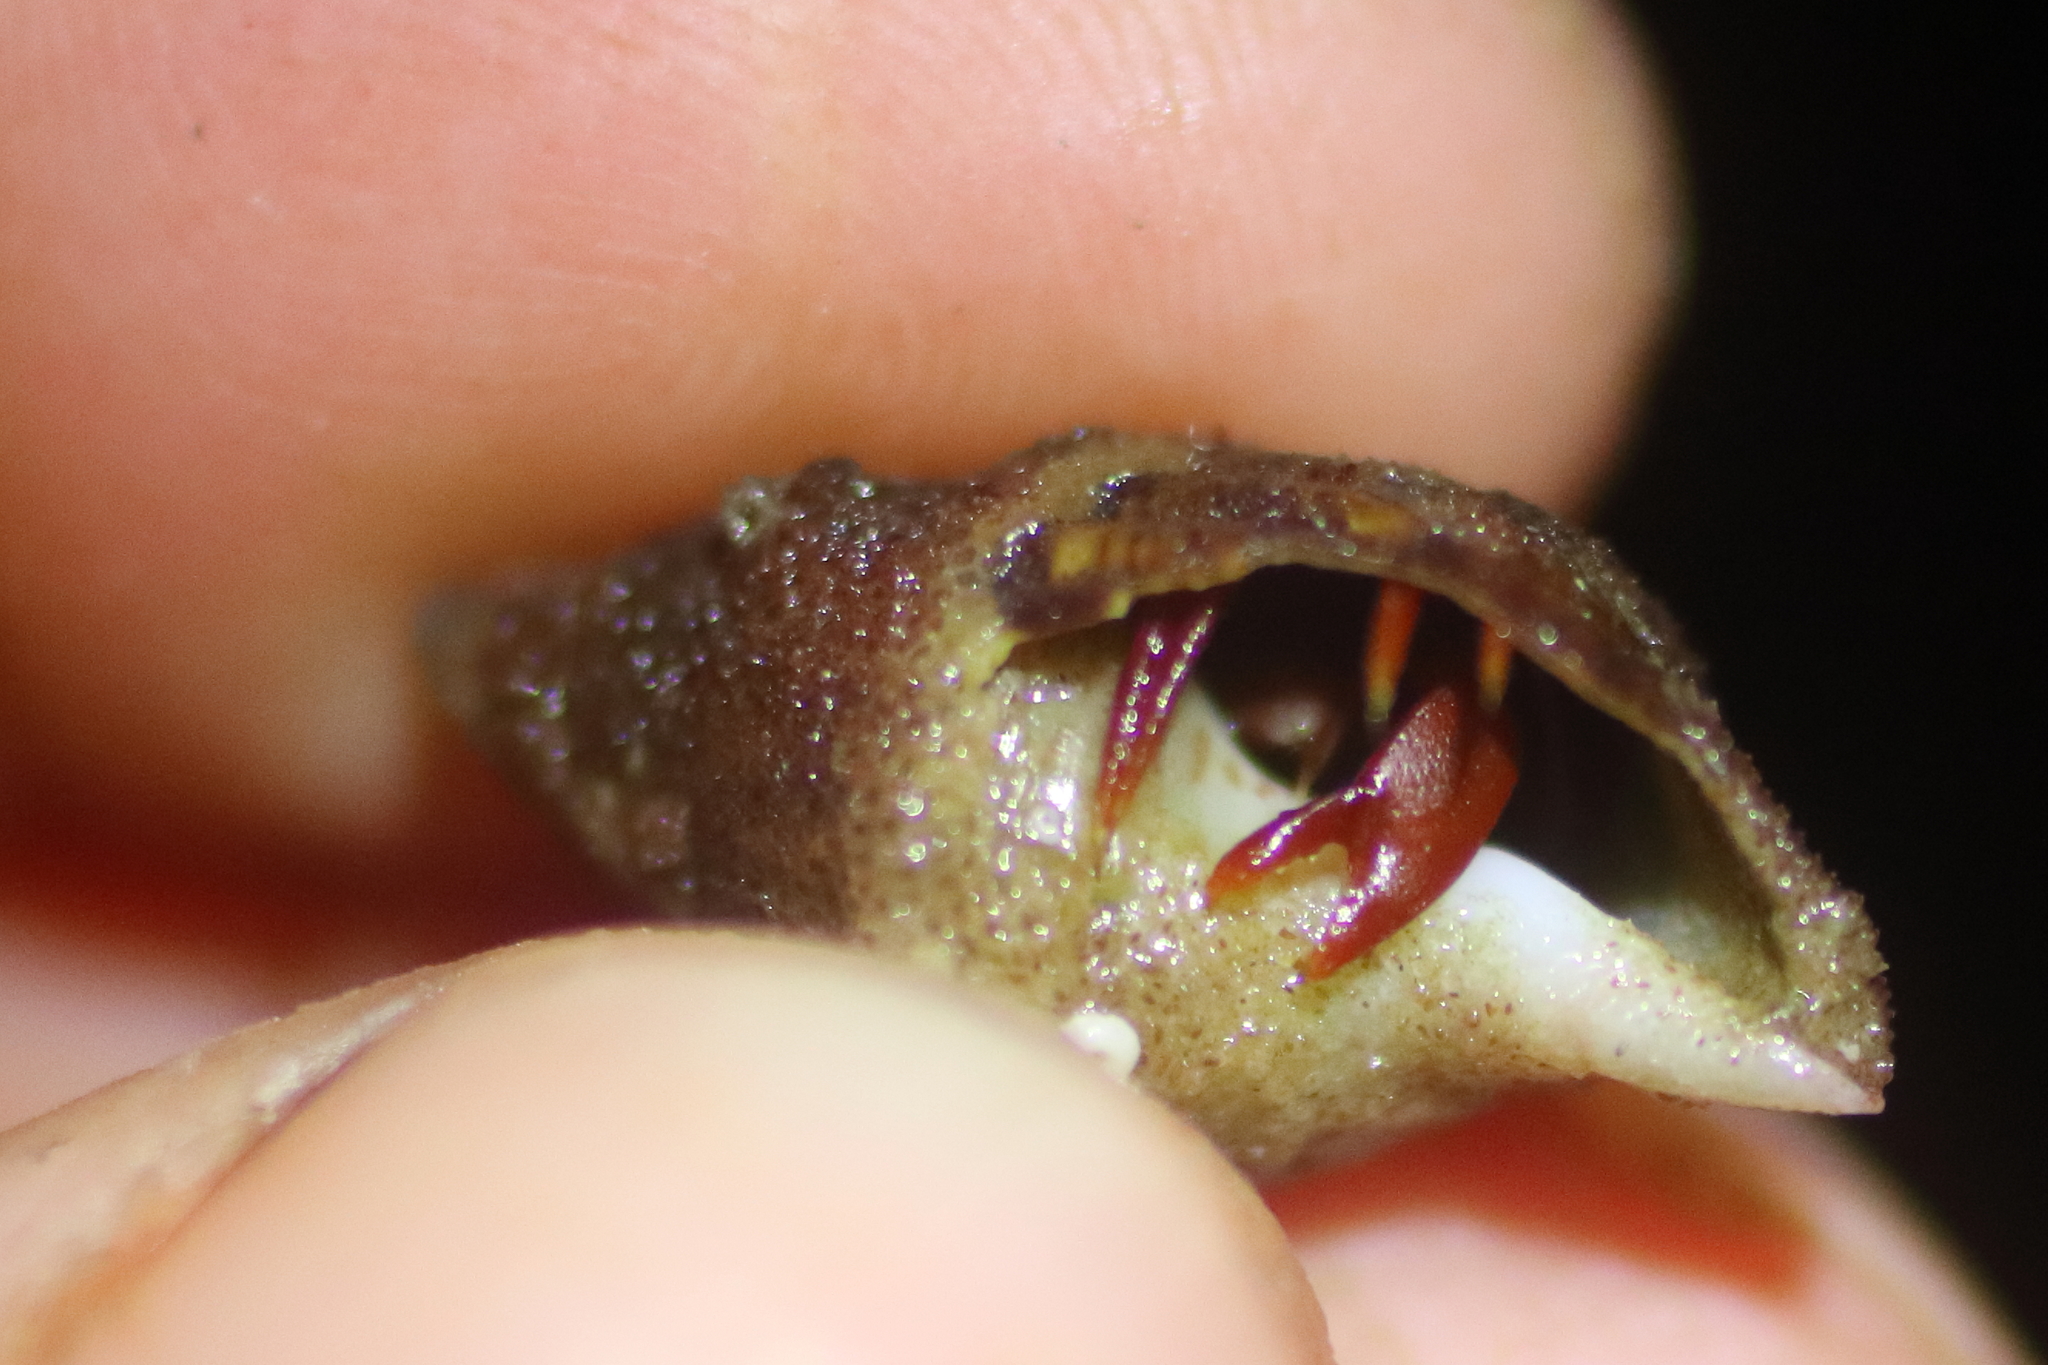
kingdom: Animalia
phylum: Arthropoda
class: Malacostraca
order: Decapoda
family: Paguridae
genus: Pagurus
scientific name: Pagurus hartae
